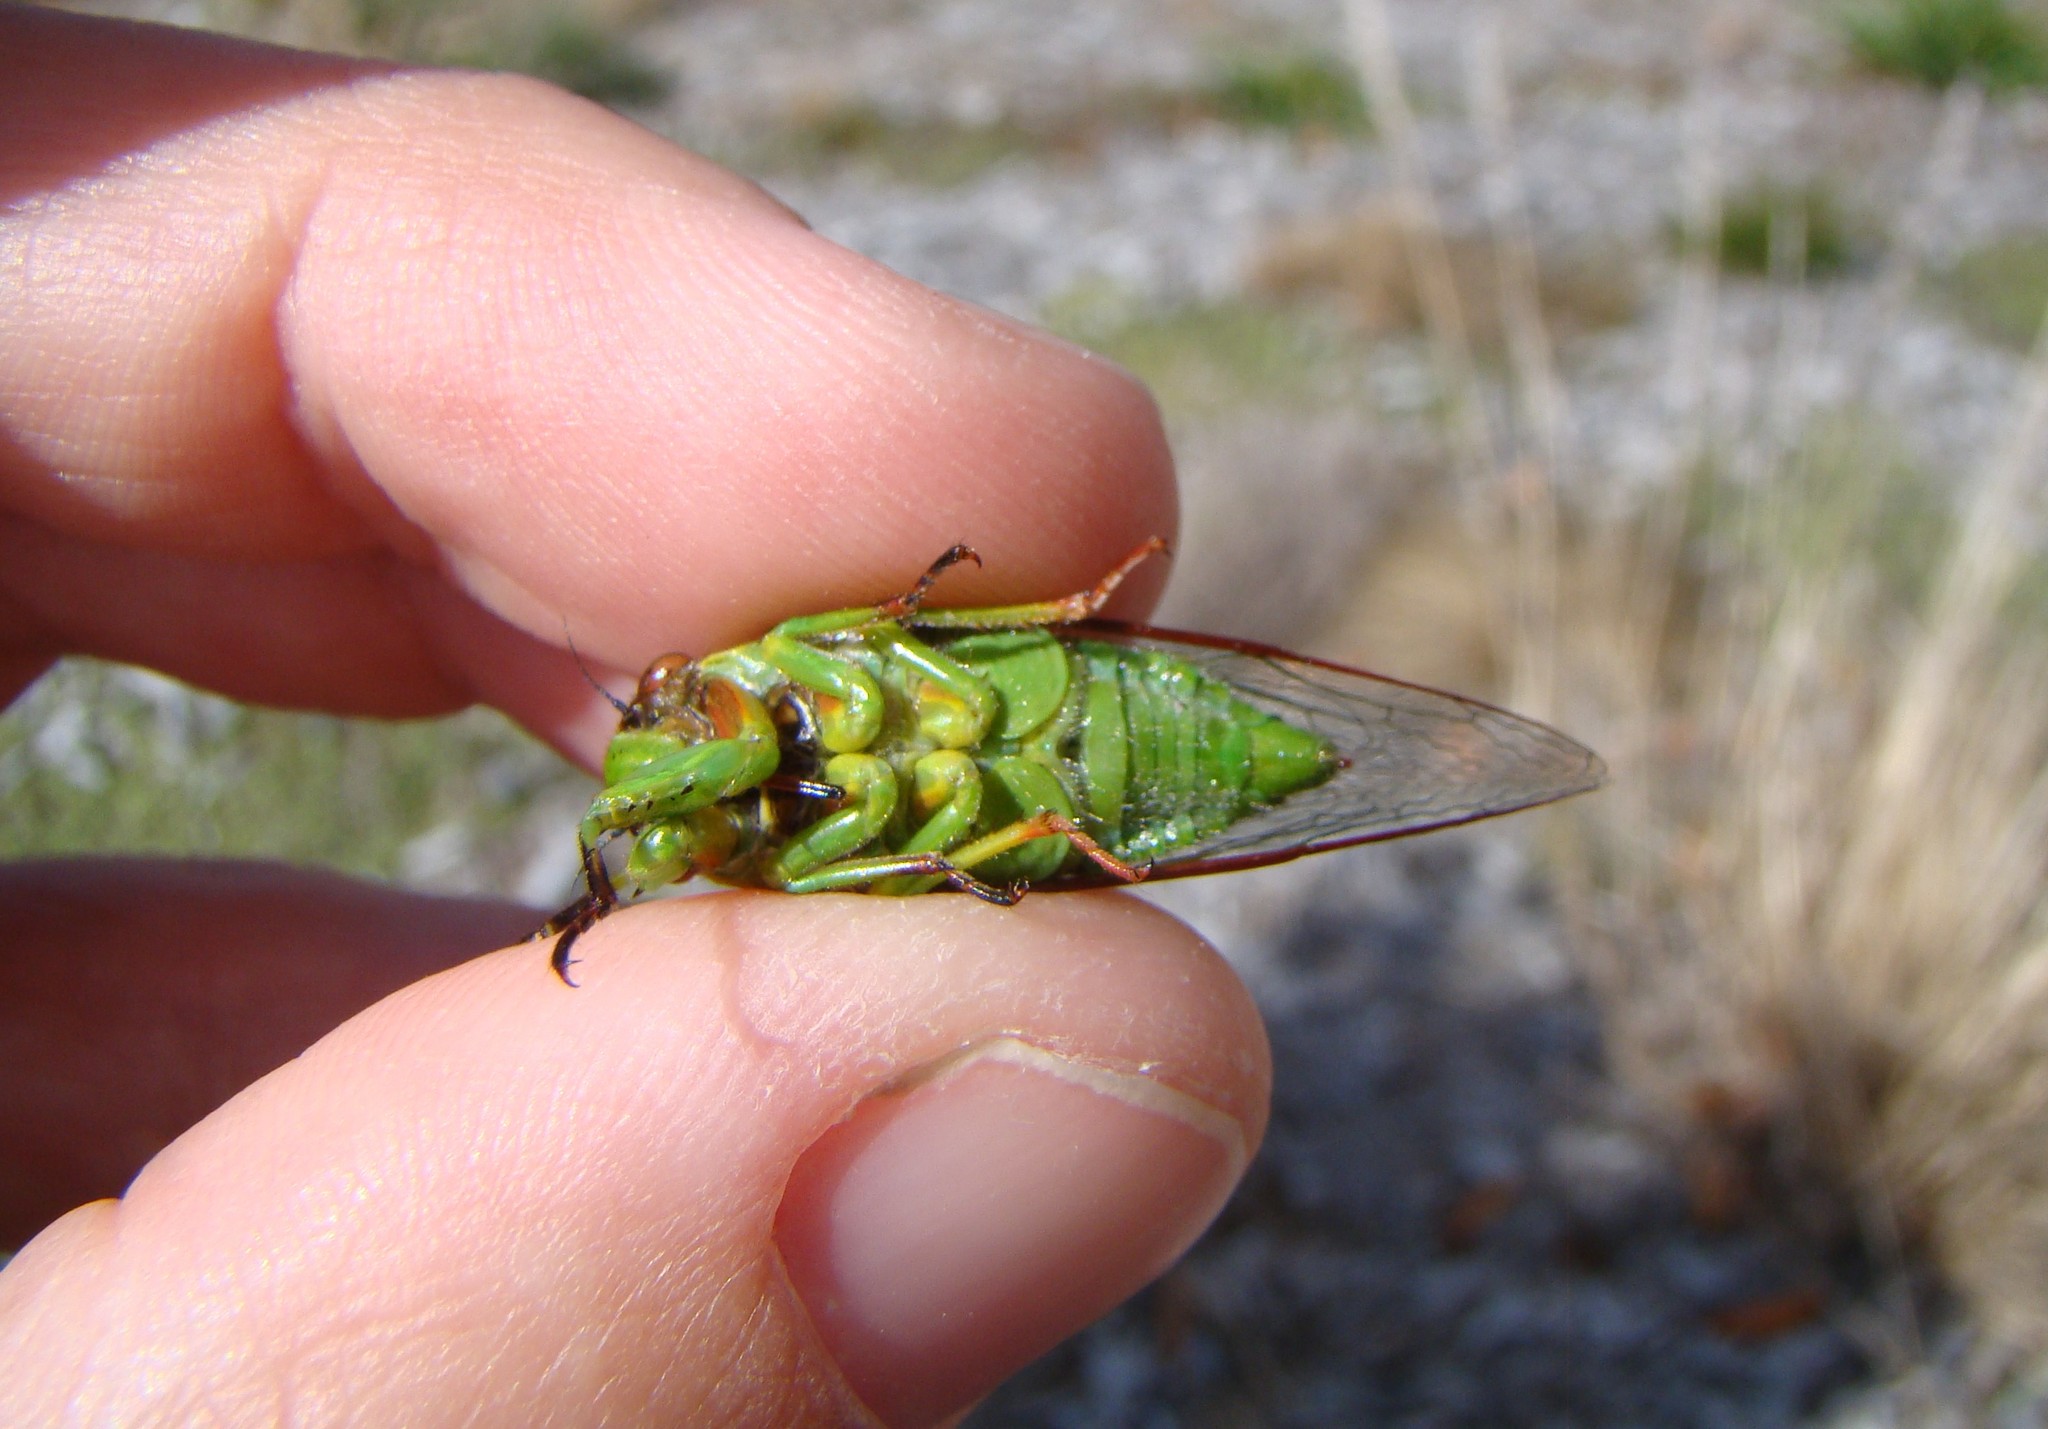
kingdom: Animalia
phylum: Arthropoda
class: Insecta
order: Hemiptera
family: Cicadidae
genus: Kikihia
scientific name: Kikihia cutora
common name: Northern snoring cicada
